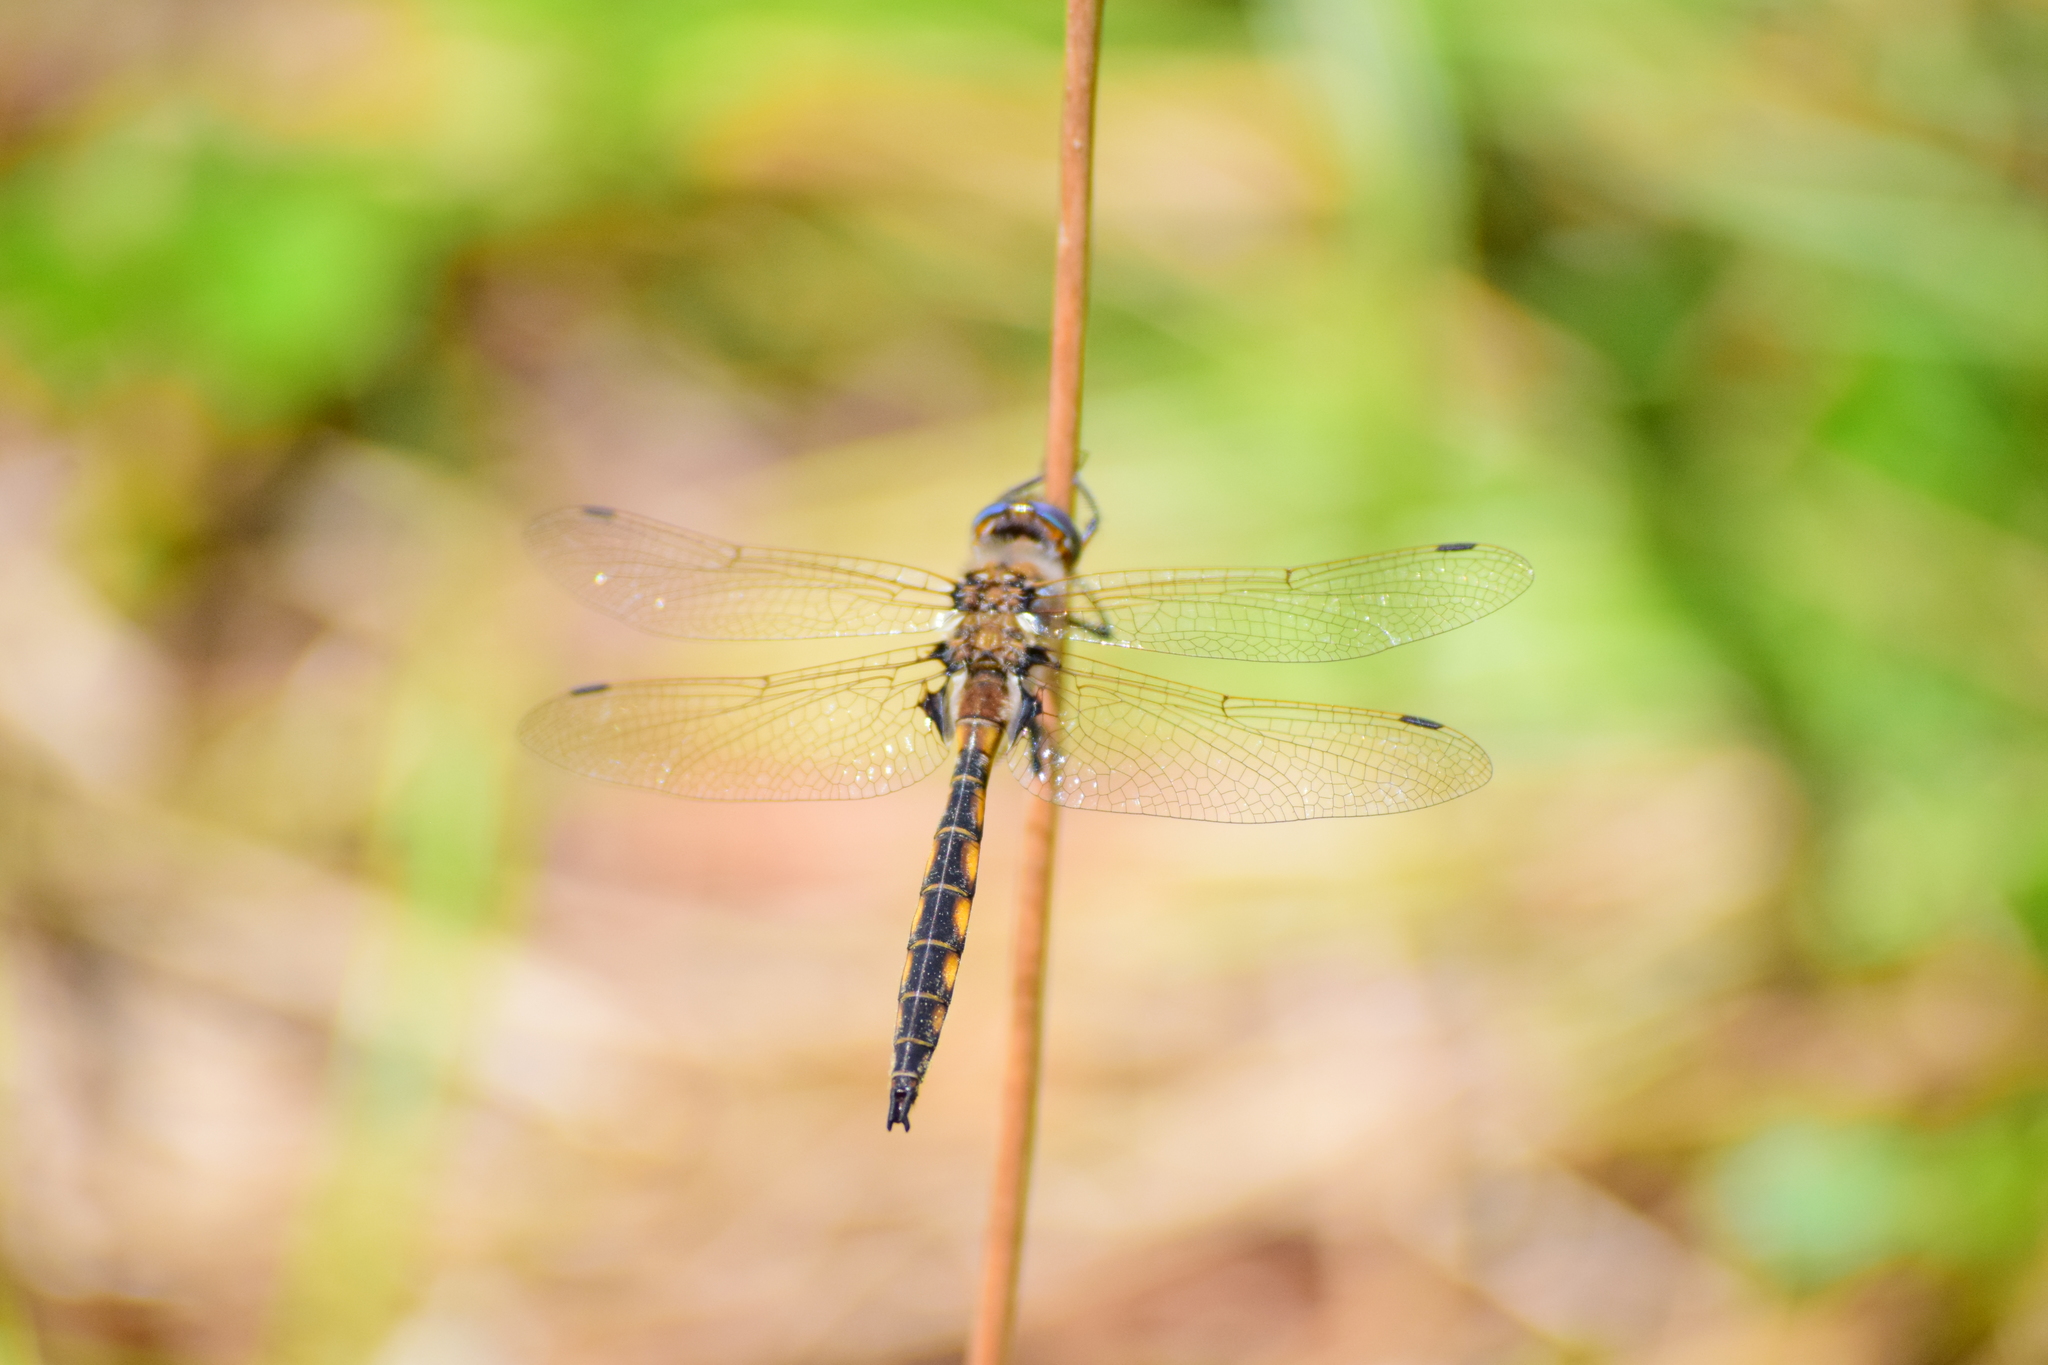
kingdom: Animalia
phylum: Arthropoda
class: Insecta
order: Odonata
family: Corduliidae
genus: Epitheca
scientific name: Epitheca canis
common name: Beaverpond baskettail
